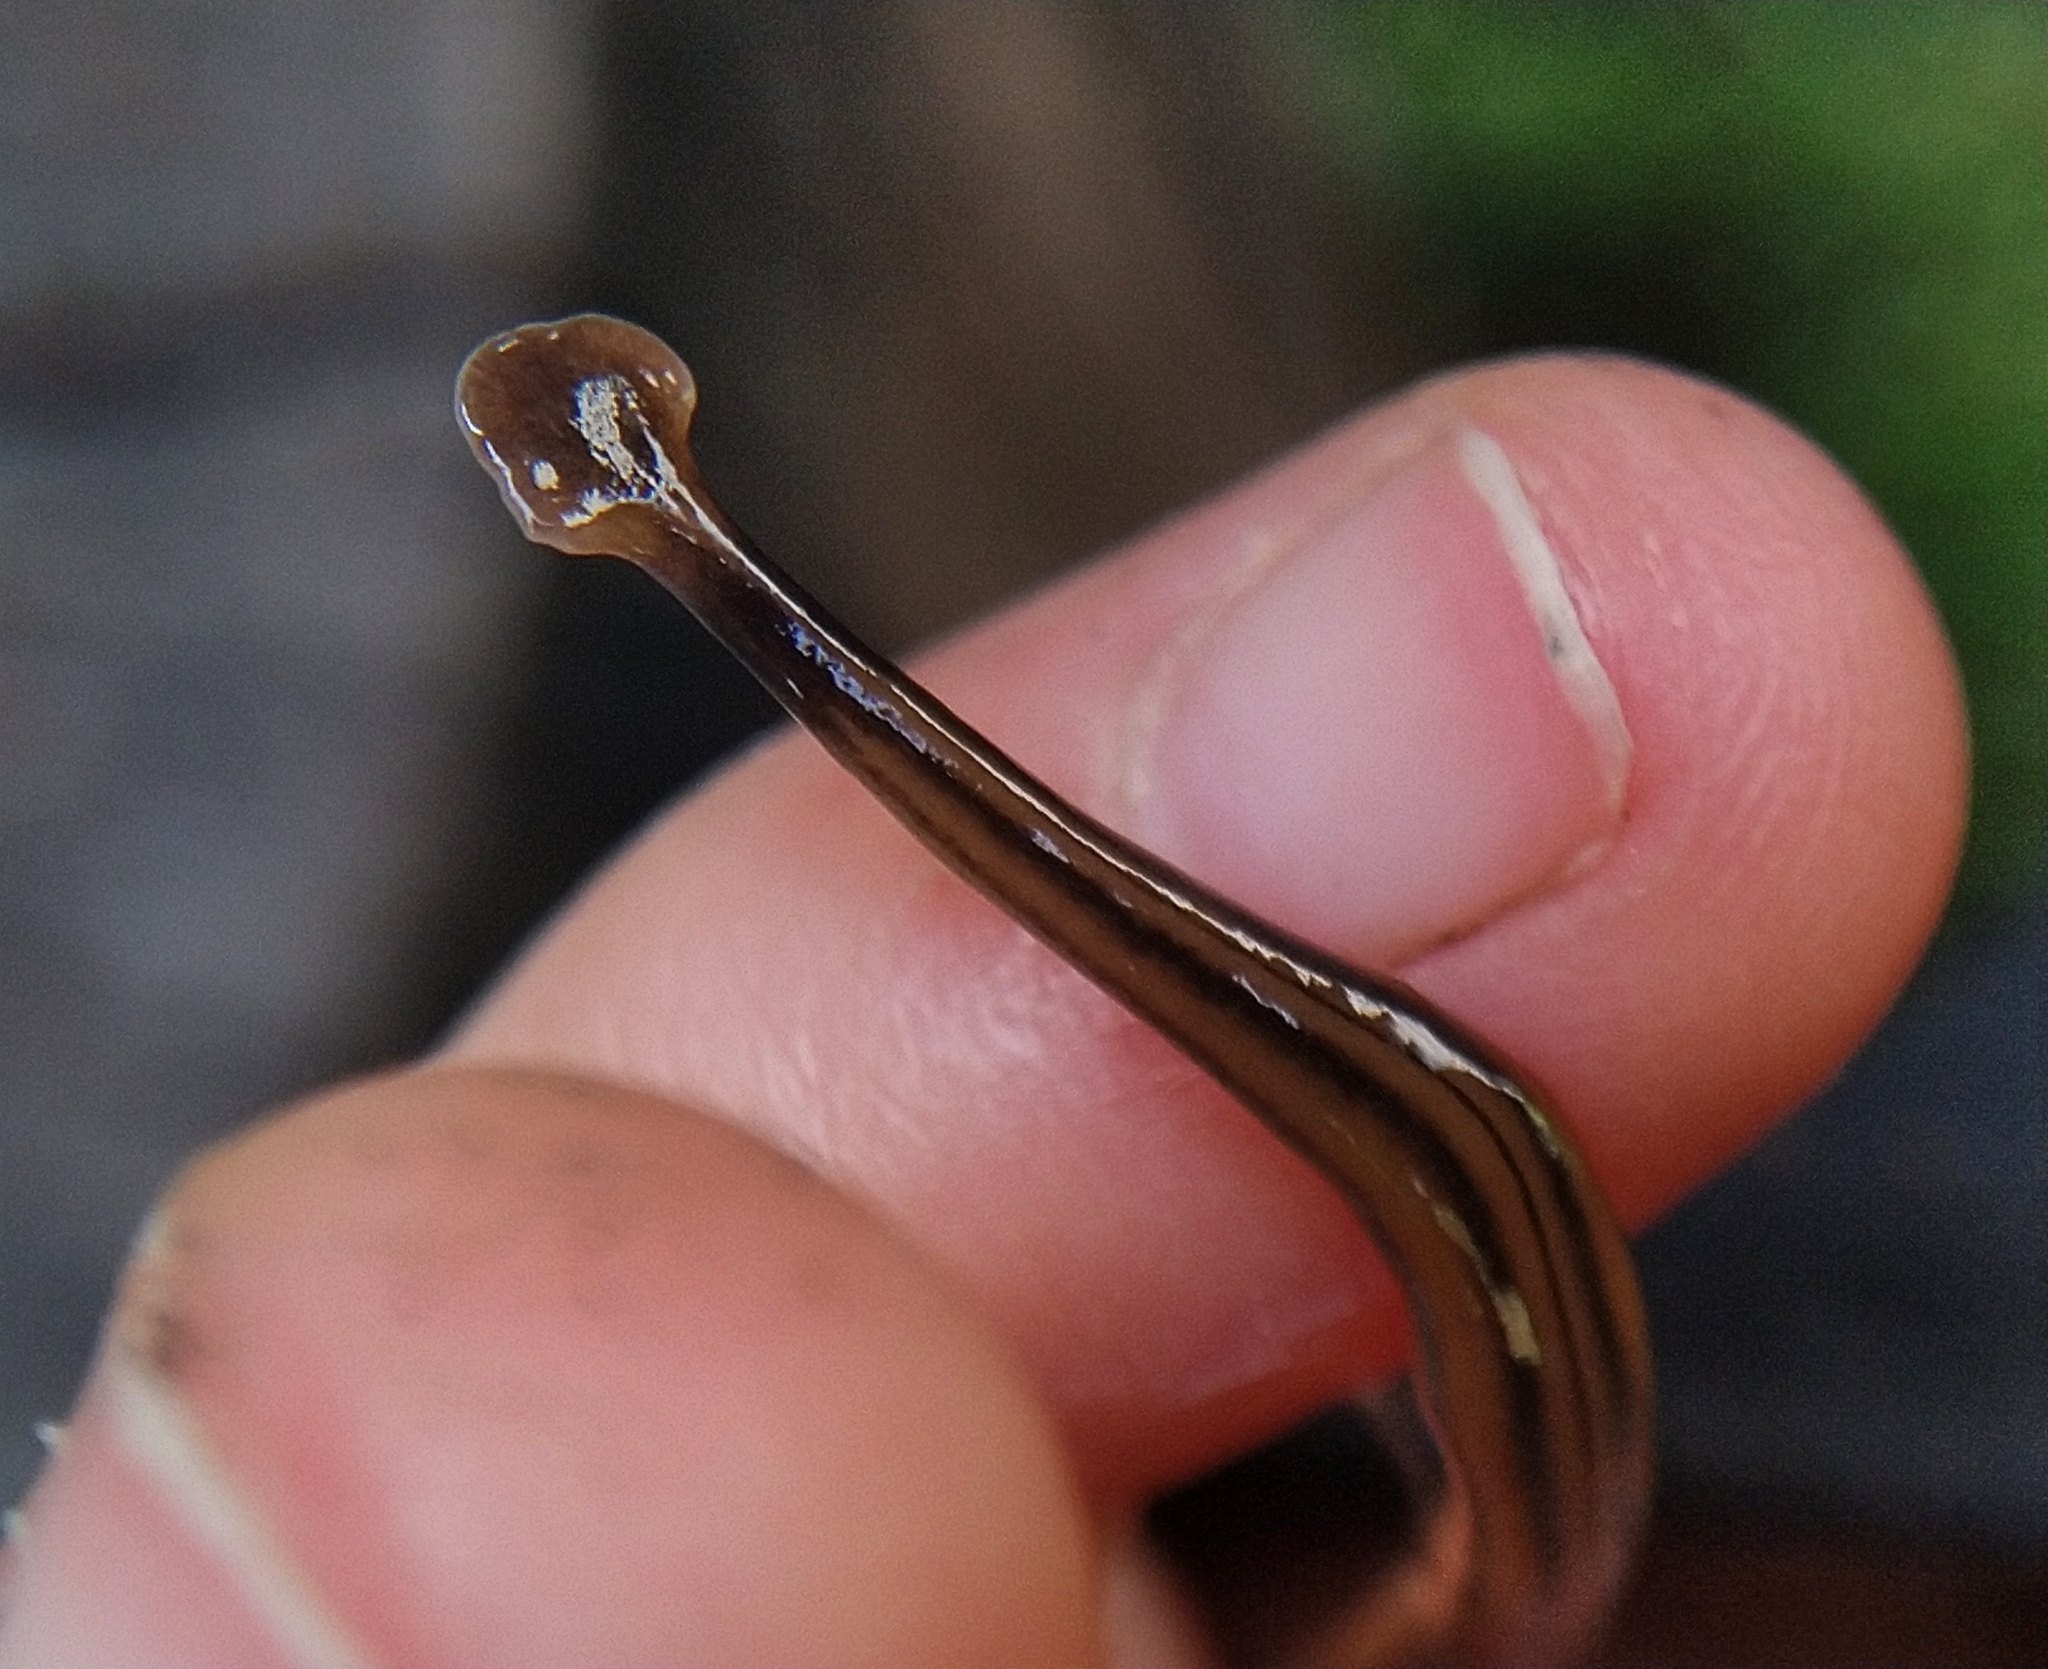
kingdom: Animalia
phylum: Platyhelminthes
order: Tricladida
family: Geoplanidae
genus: Bipalium
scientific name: Bipalium kewense
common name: Hammerhead flatworm
